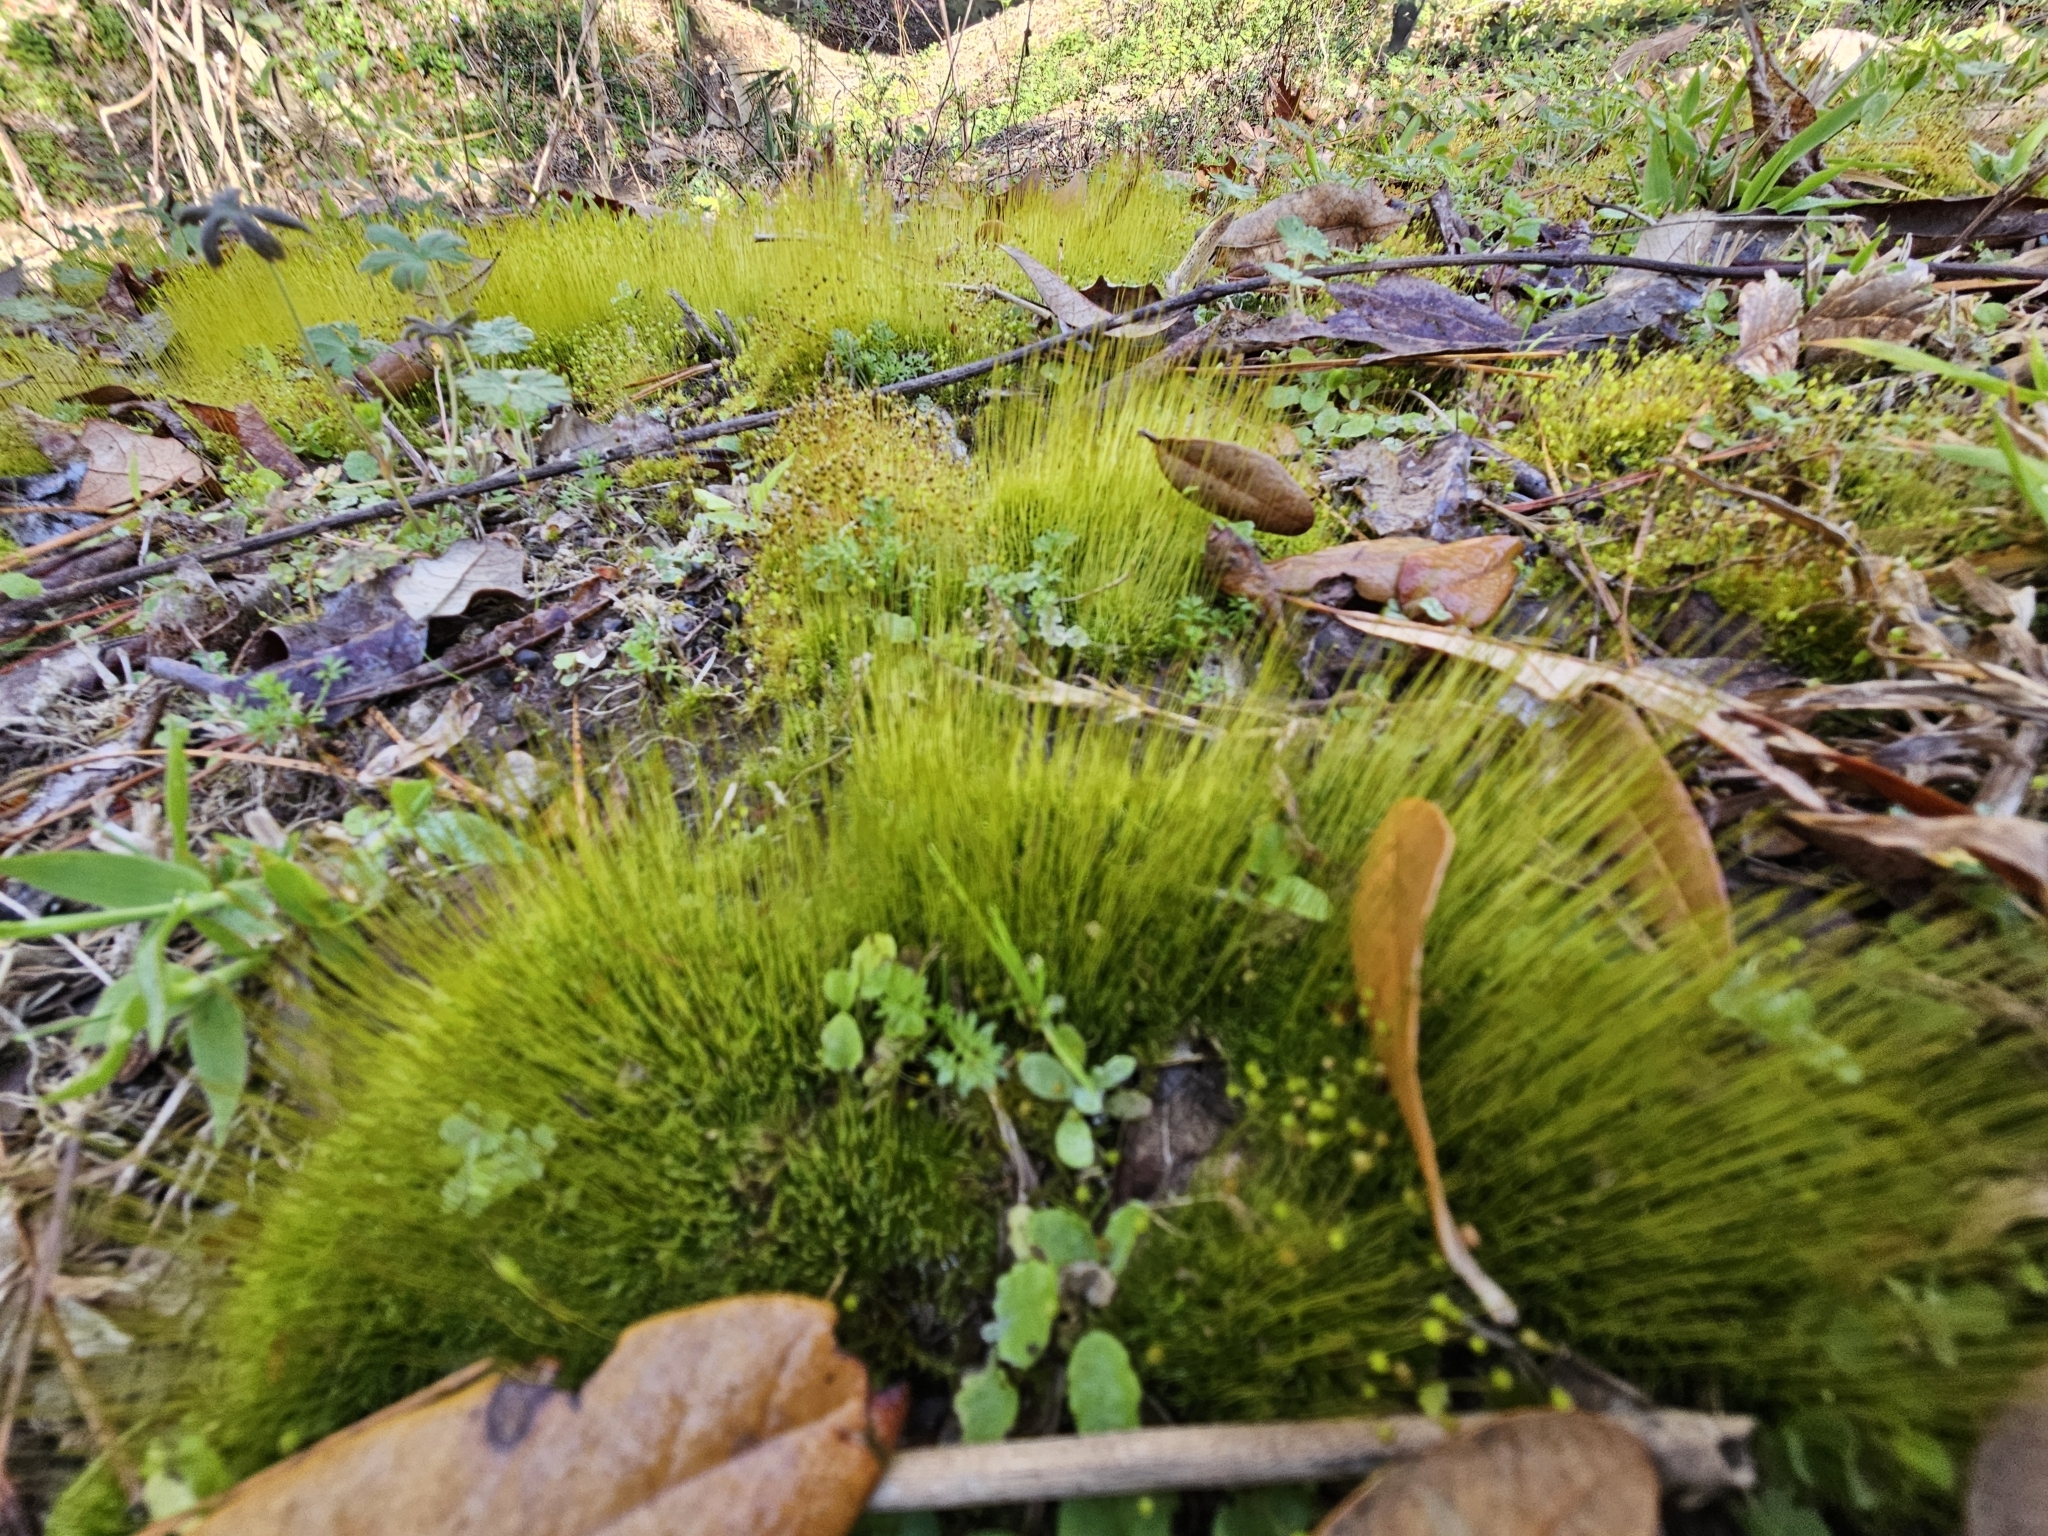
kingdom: Plantae
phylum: Bryophyta
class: Bryopsida
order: Dicranales
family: Ditrichaceae
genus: Ditrichum
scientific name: Ditrichum pallidum
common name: Pale cow-hair moss
